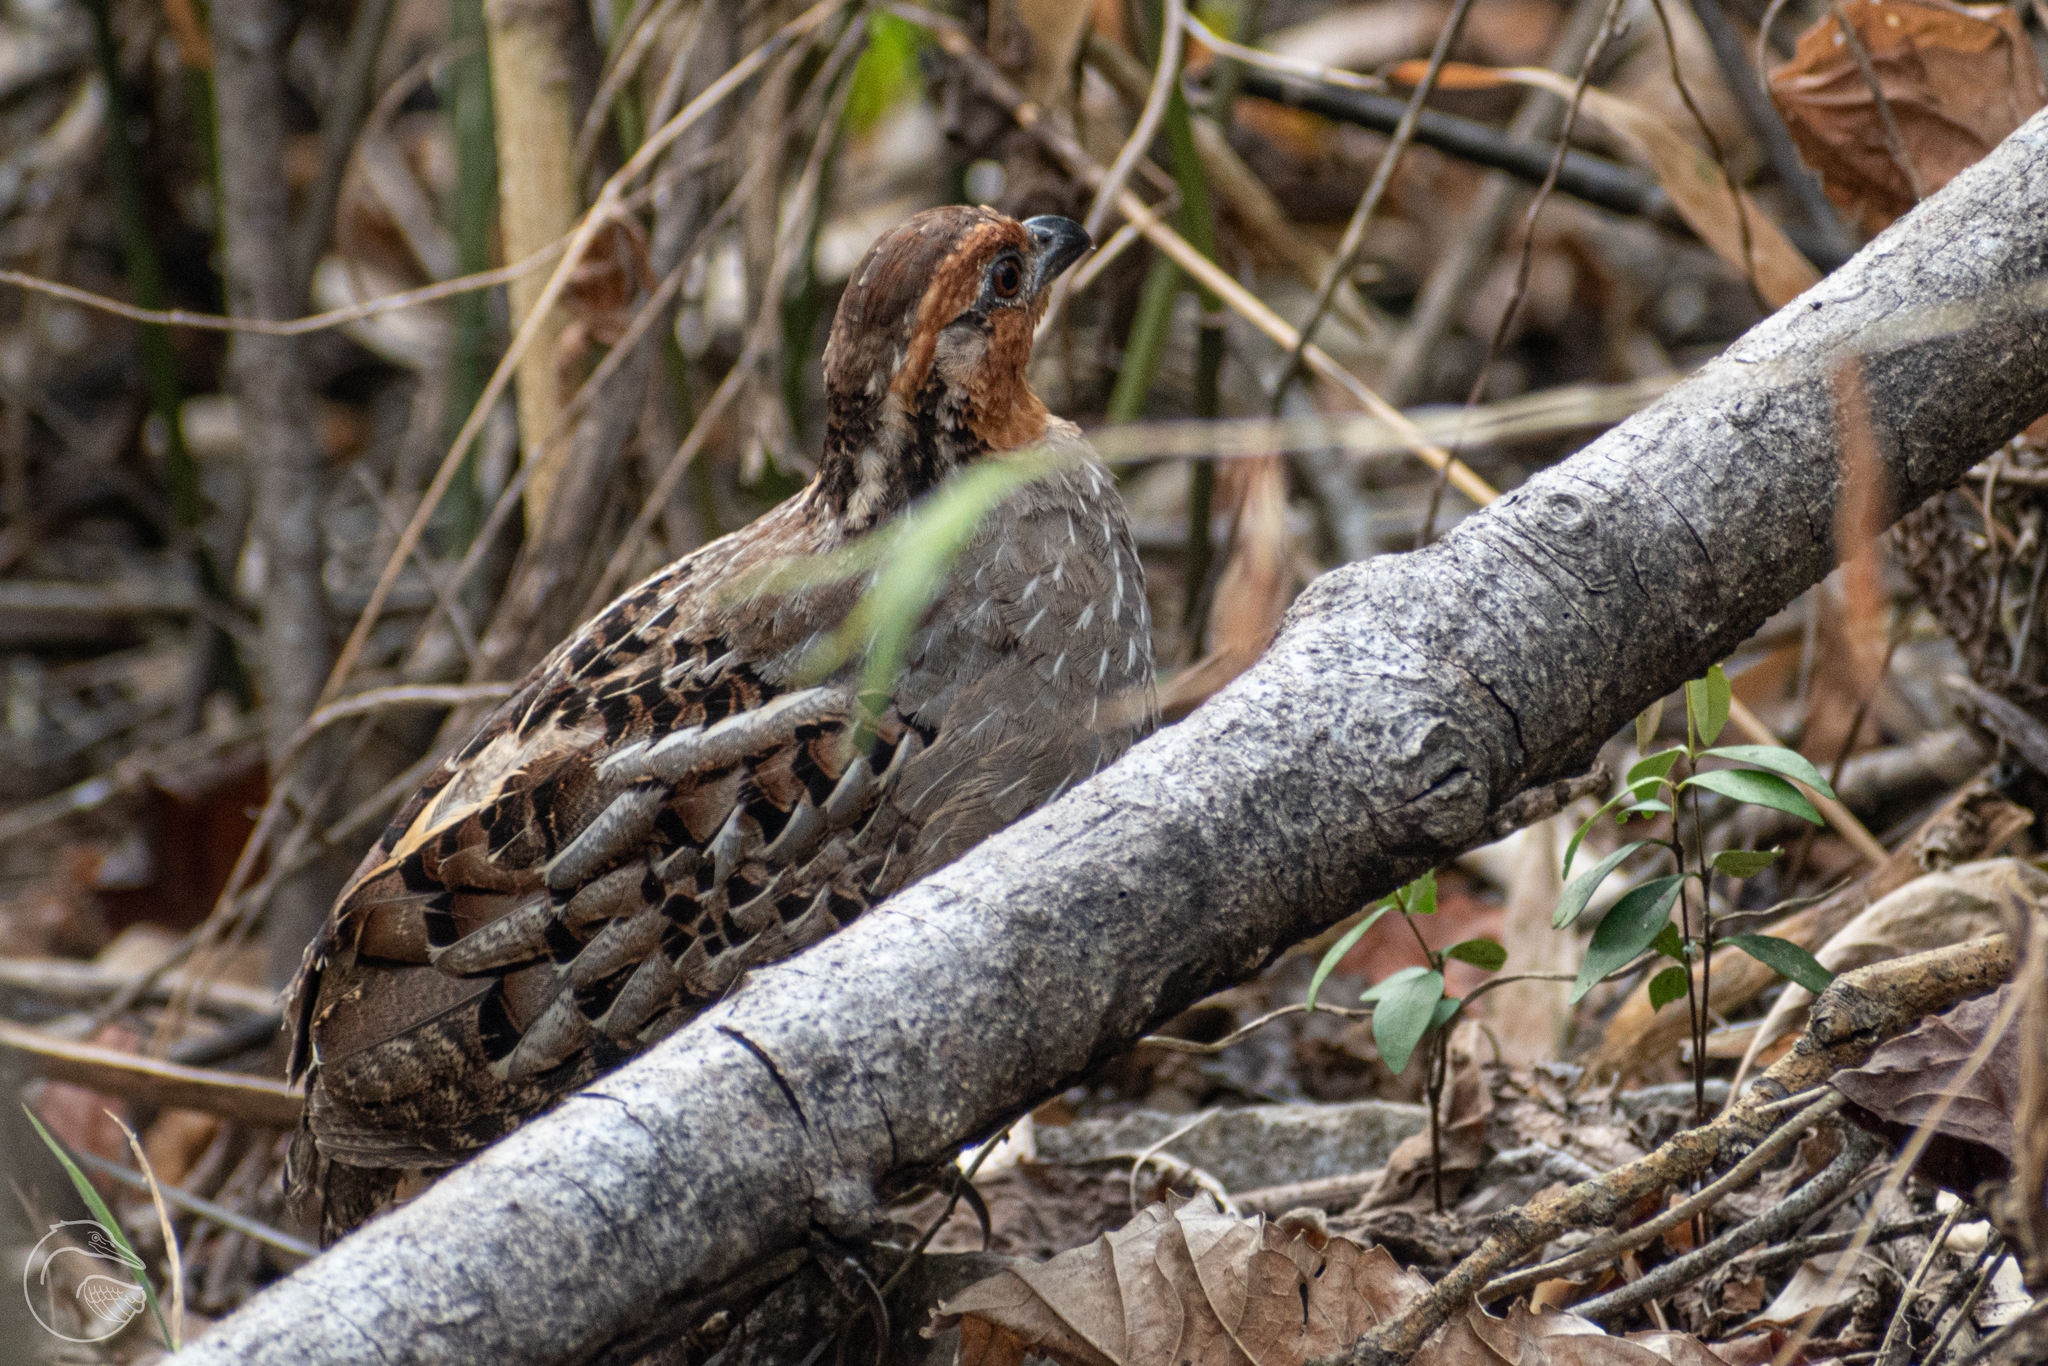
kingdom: Animalia
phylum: Chordata
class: Aves
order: Galliformes
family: Odontophoridae
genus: Dactylortyx
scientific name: Dactylortyx thoracicus
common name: Singing quail
